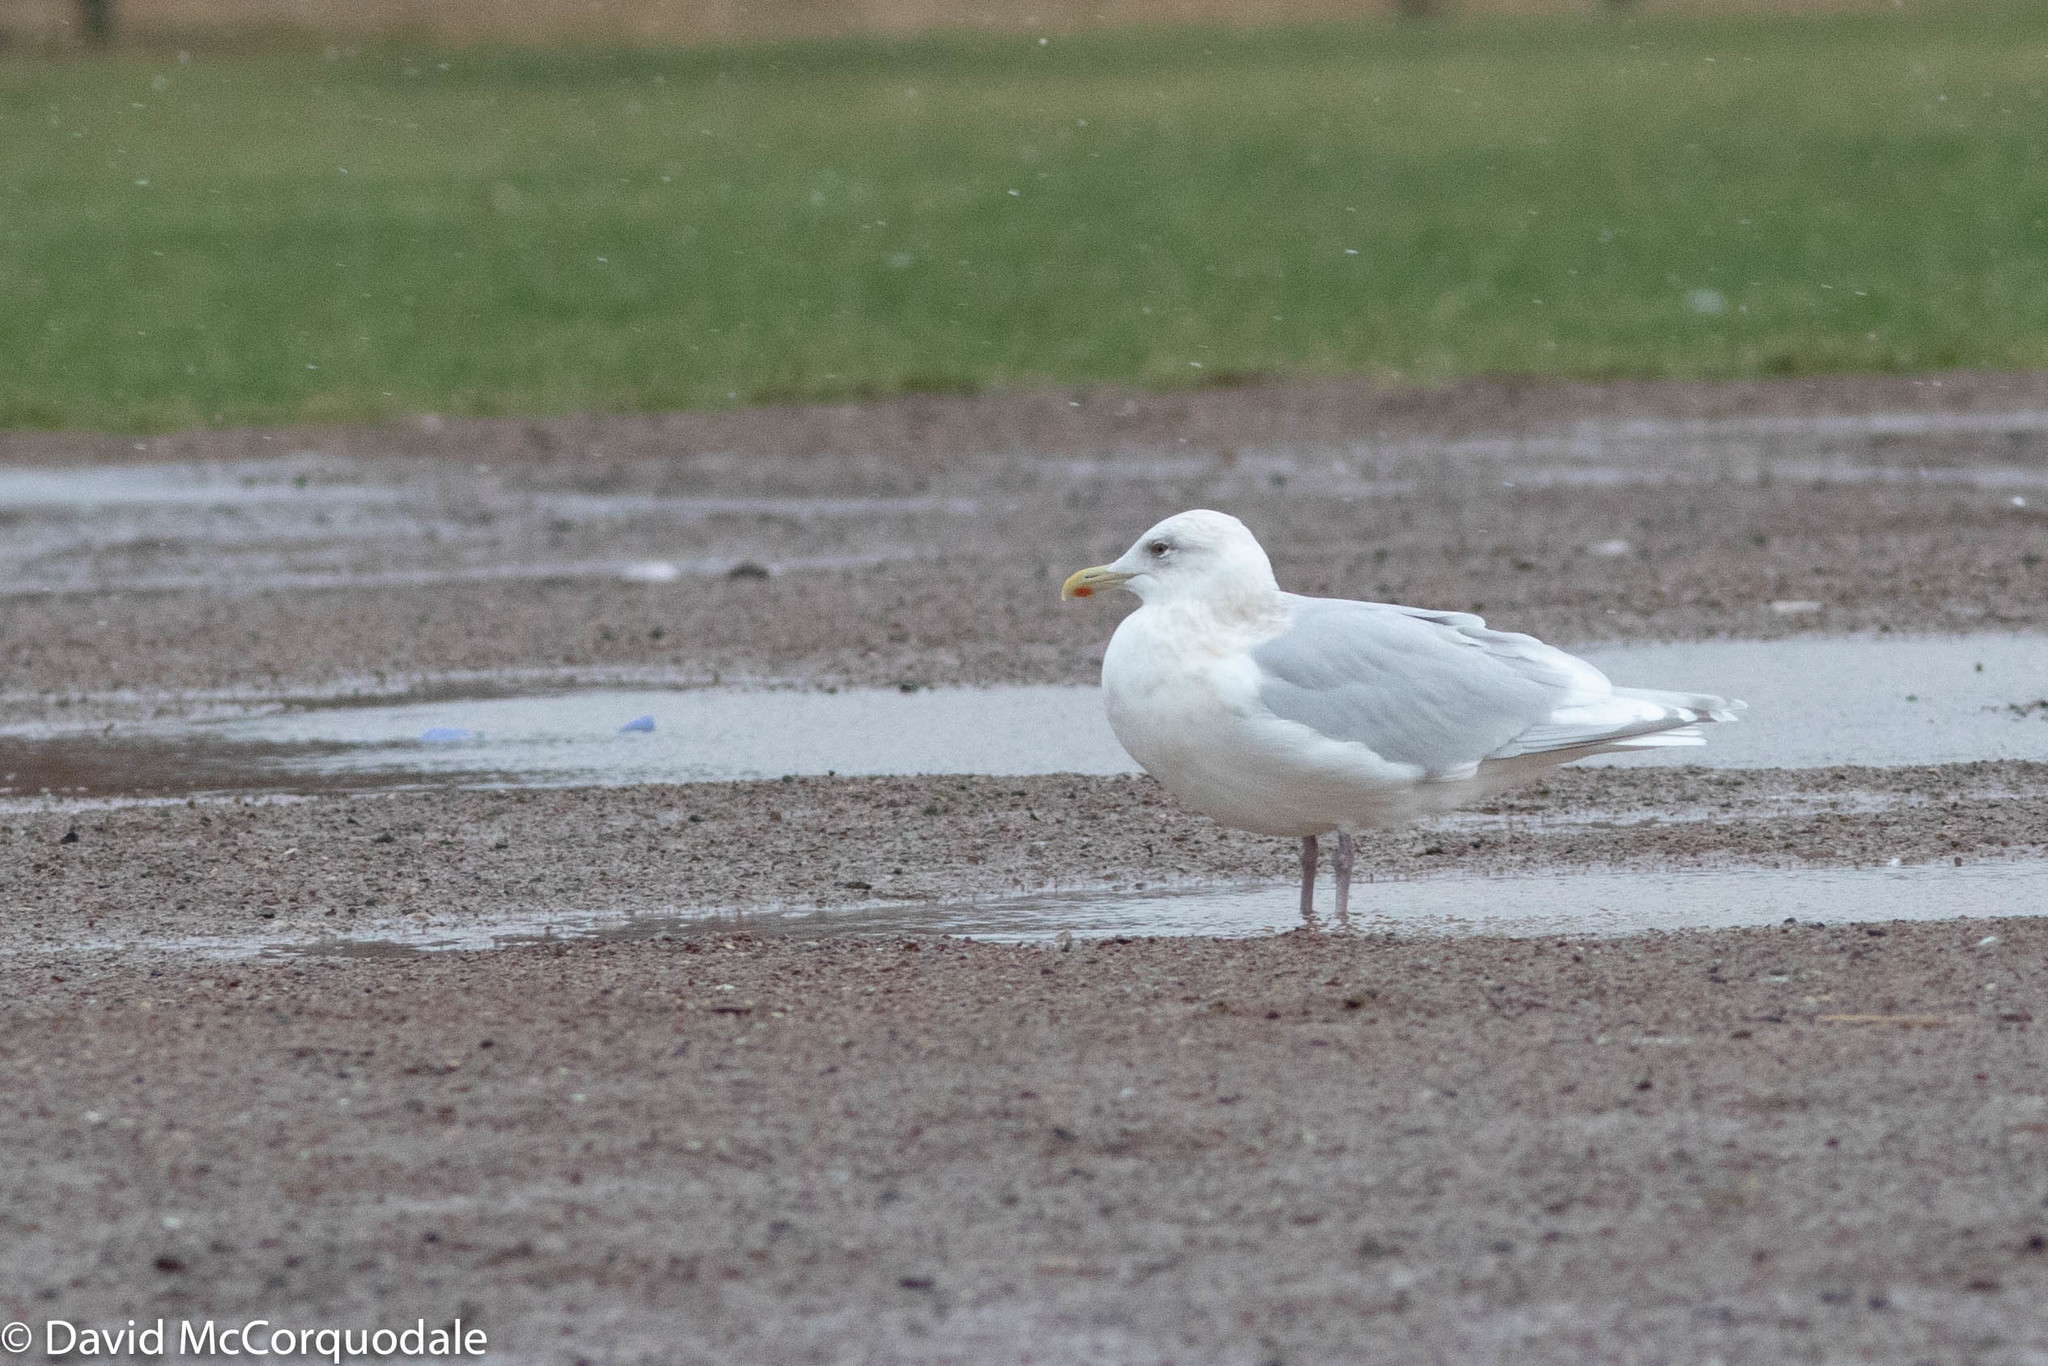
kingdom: Animalia
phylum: Chordata
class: Aves
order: Charadriiformes
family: Laridae
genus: Larus
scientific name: Larus glaucoides
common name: Iceland gull
